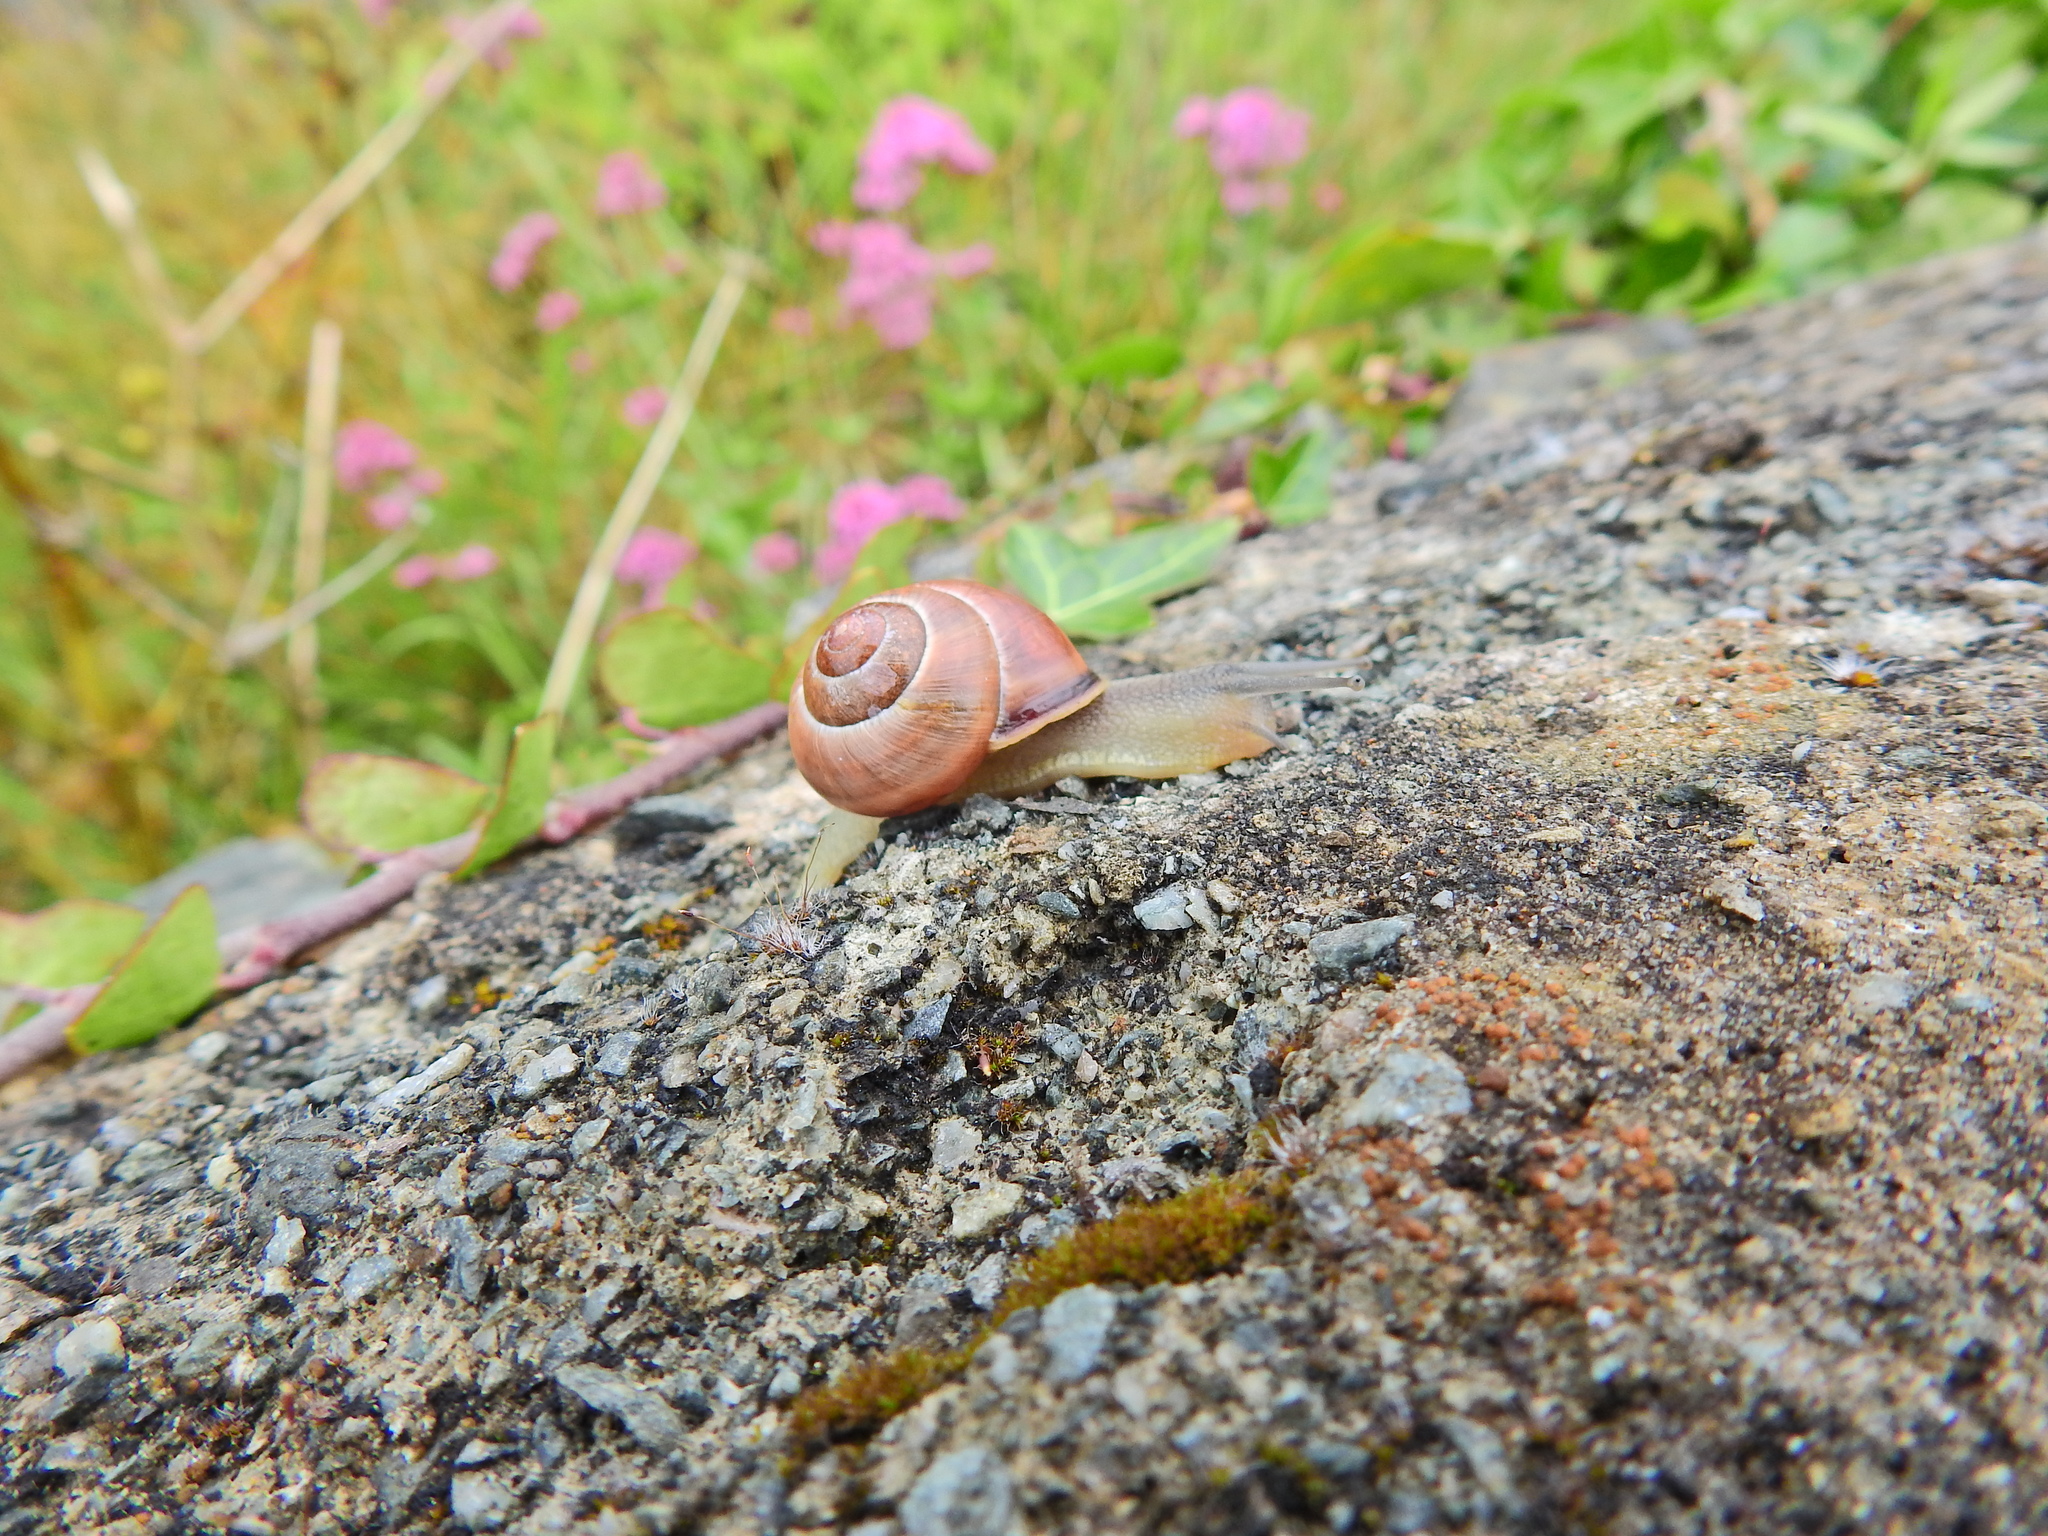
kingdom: Animalia
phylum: Mollusca
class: Gastropoda
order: Stylommatophora
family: Helicidae
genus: Cepaea
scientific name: Cepaea nemoralis
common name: Grovesnail
